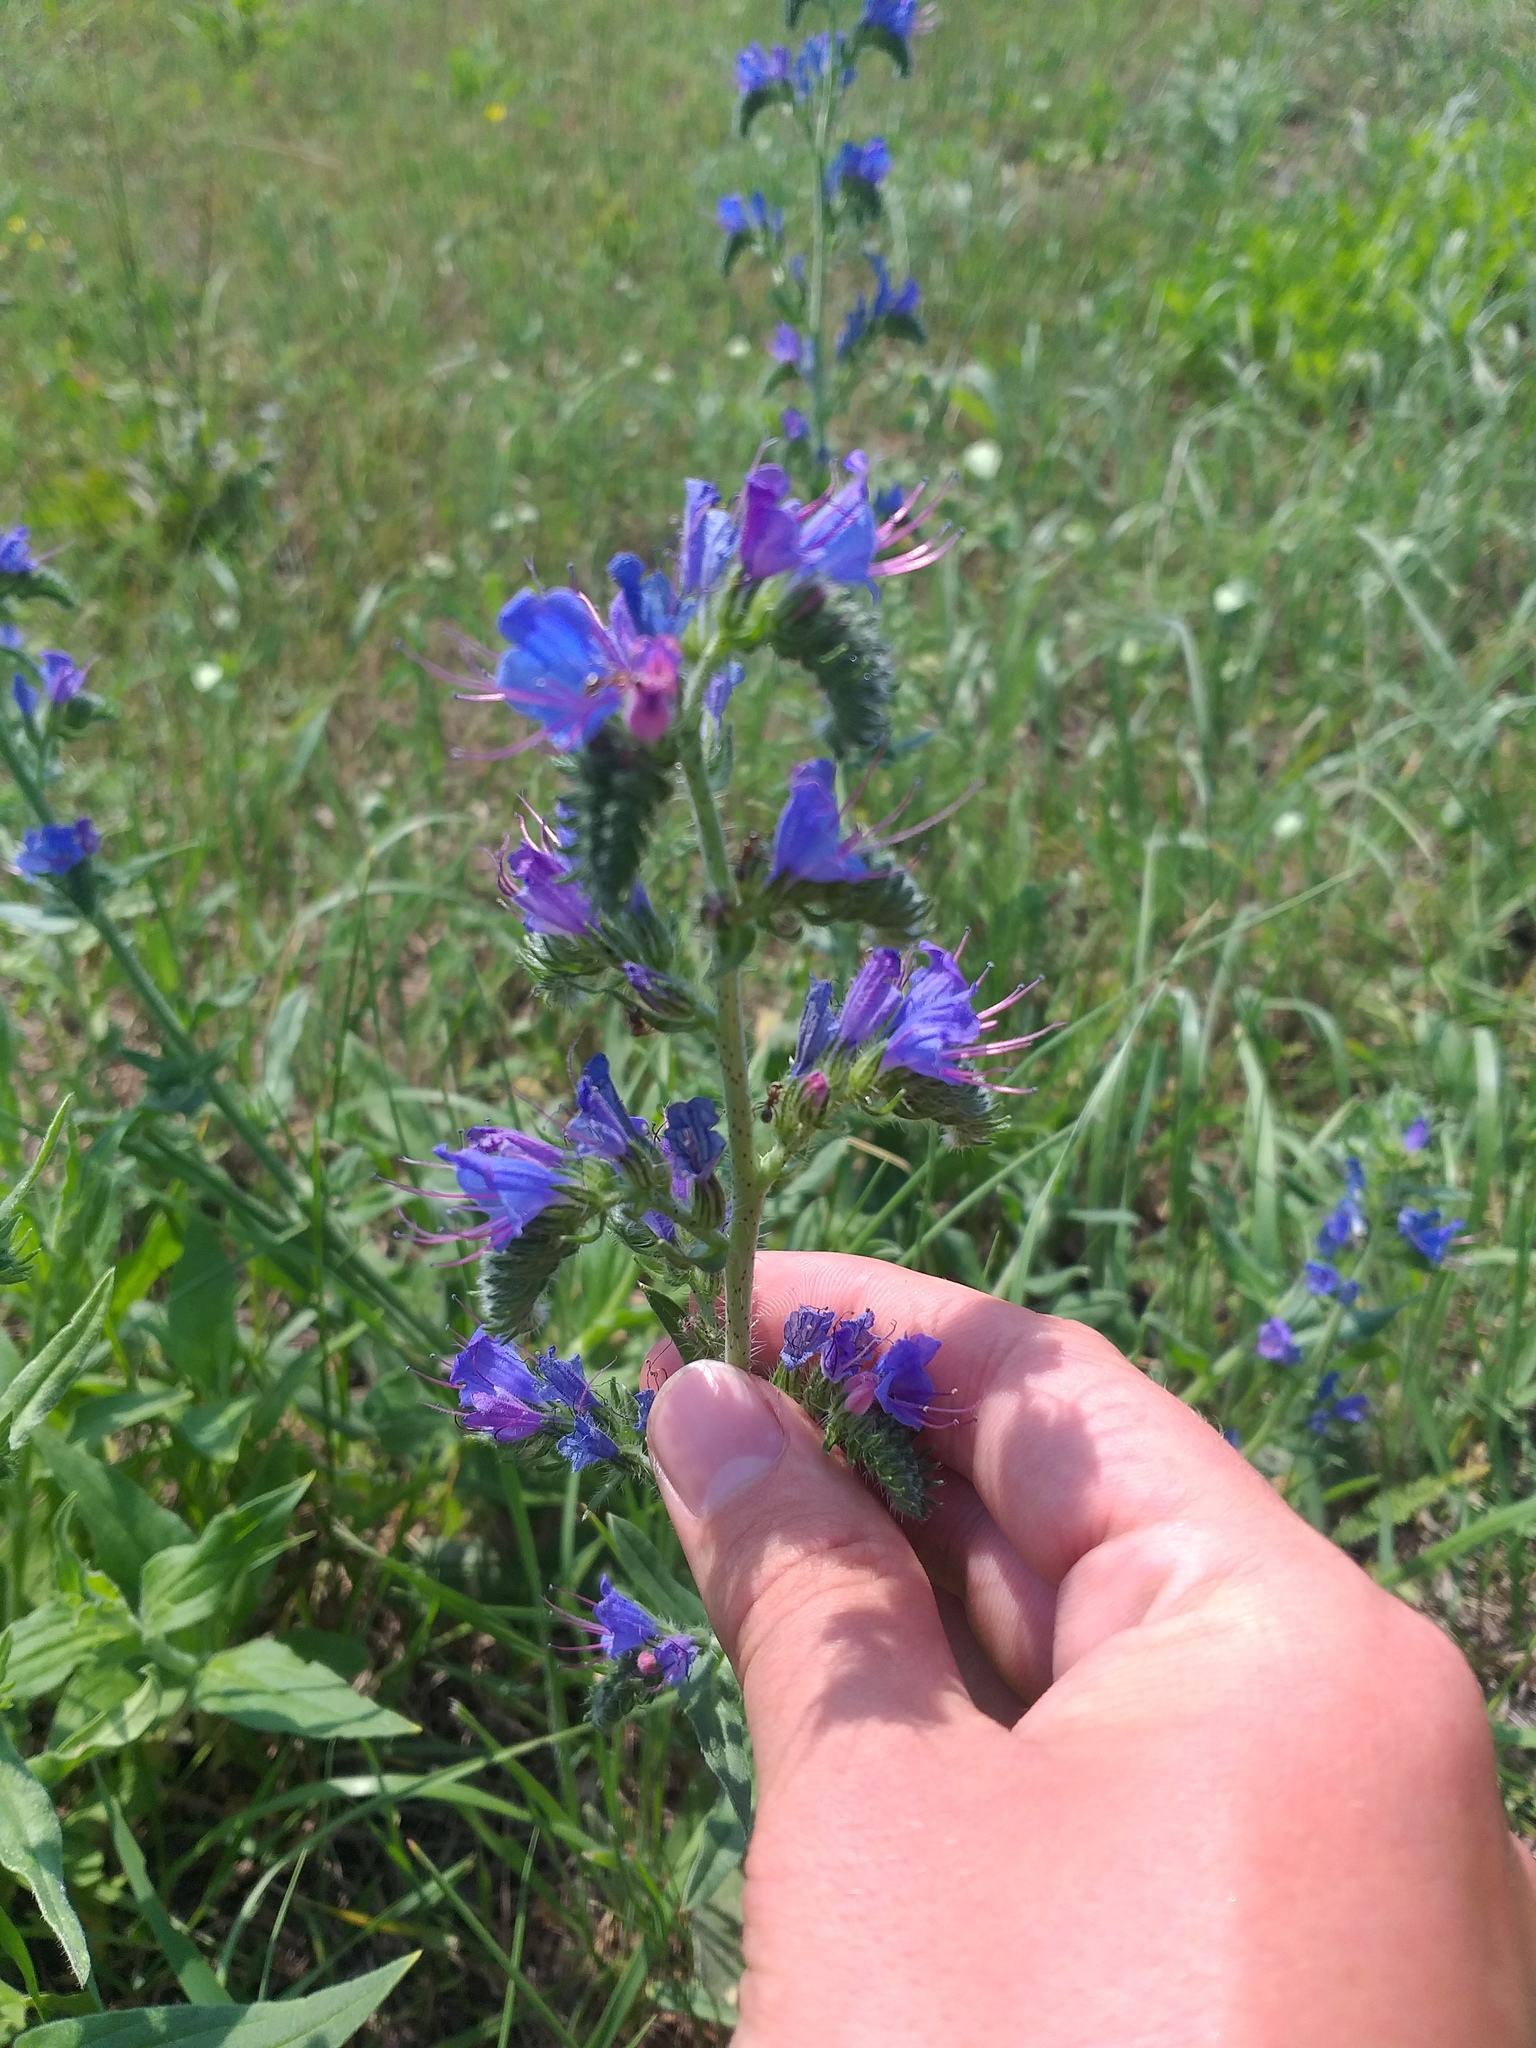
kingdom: Plantae
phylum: Tracheophyta
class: Magnoliopsida
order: Boraginales
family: Boraginaceae
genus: Echium
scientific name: Echium vulgare
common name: Common viper's bugloss
